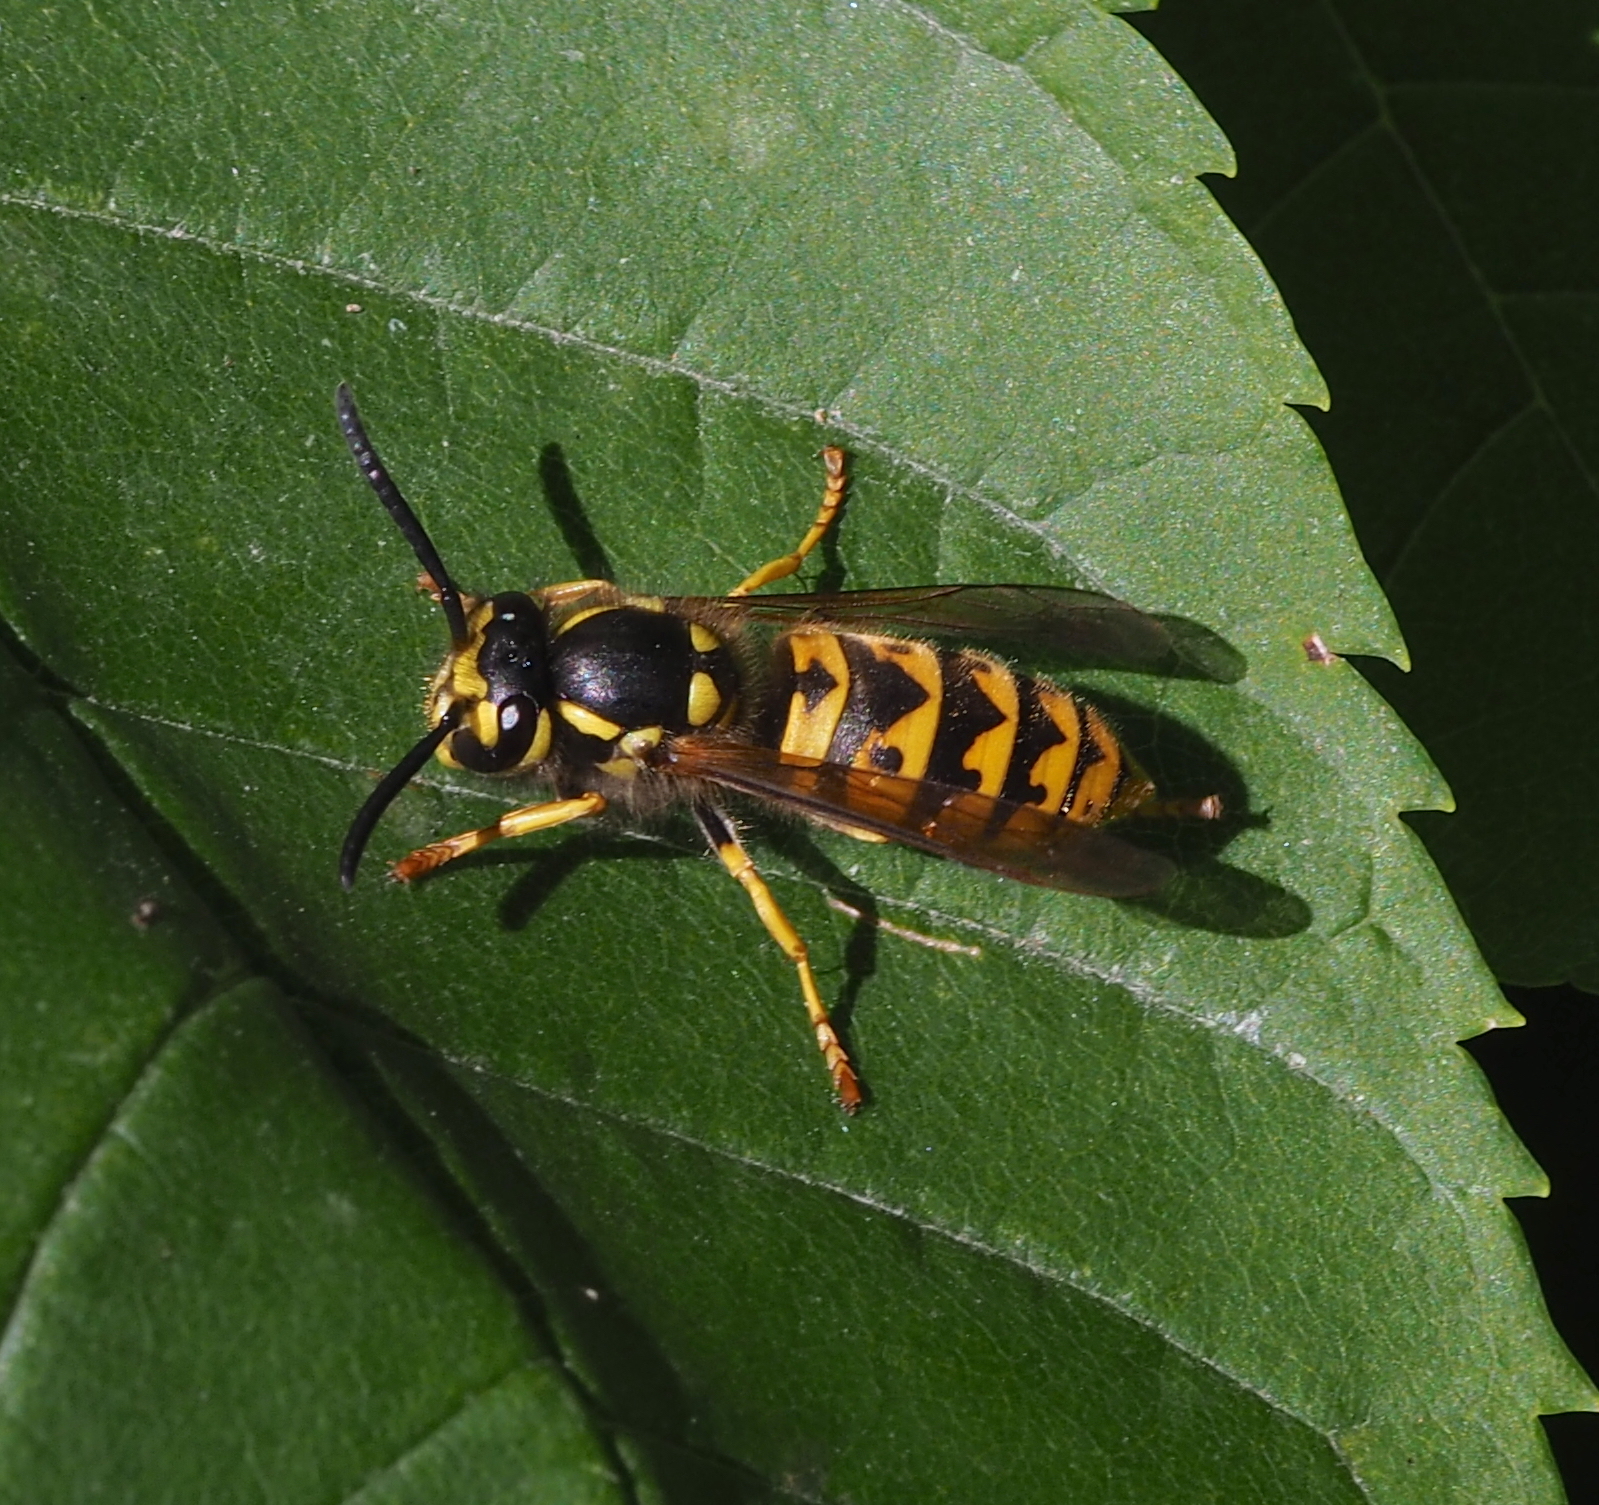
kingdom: Animalia
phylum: Arthropoda
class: Insecta
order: Hymenoptera
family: Vespidae
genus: Vespula
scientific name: Vespula germanica
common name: German wasp
